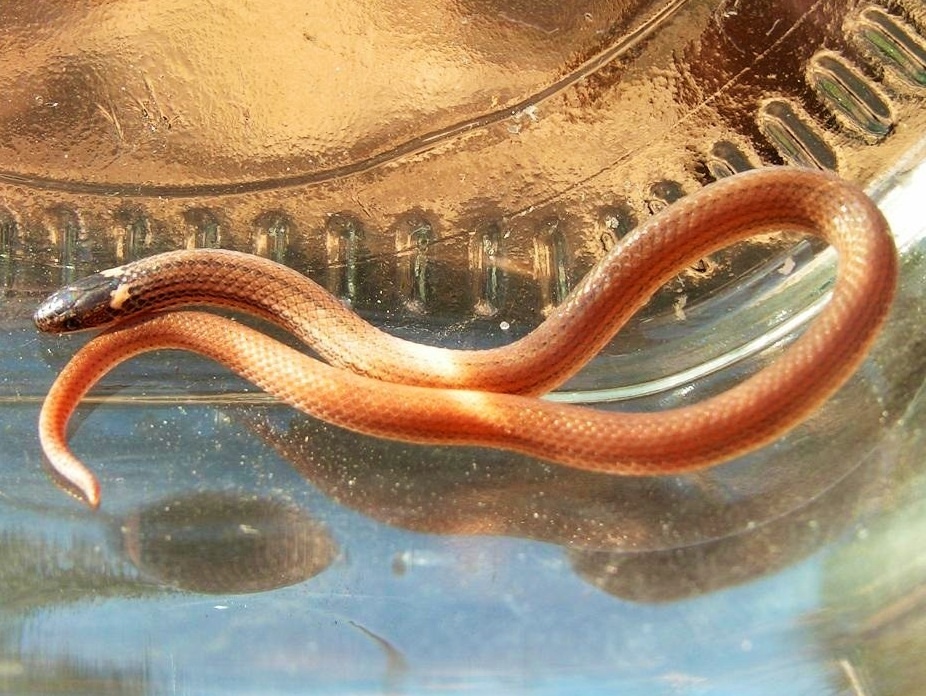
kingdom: Animalia
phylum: Chordata
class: Squamata
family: Colubridae
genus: Tantilla
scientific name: Tantilla calamarina
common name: Pacific coast centipede snake
